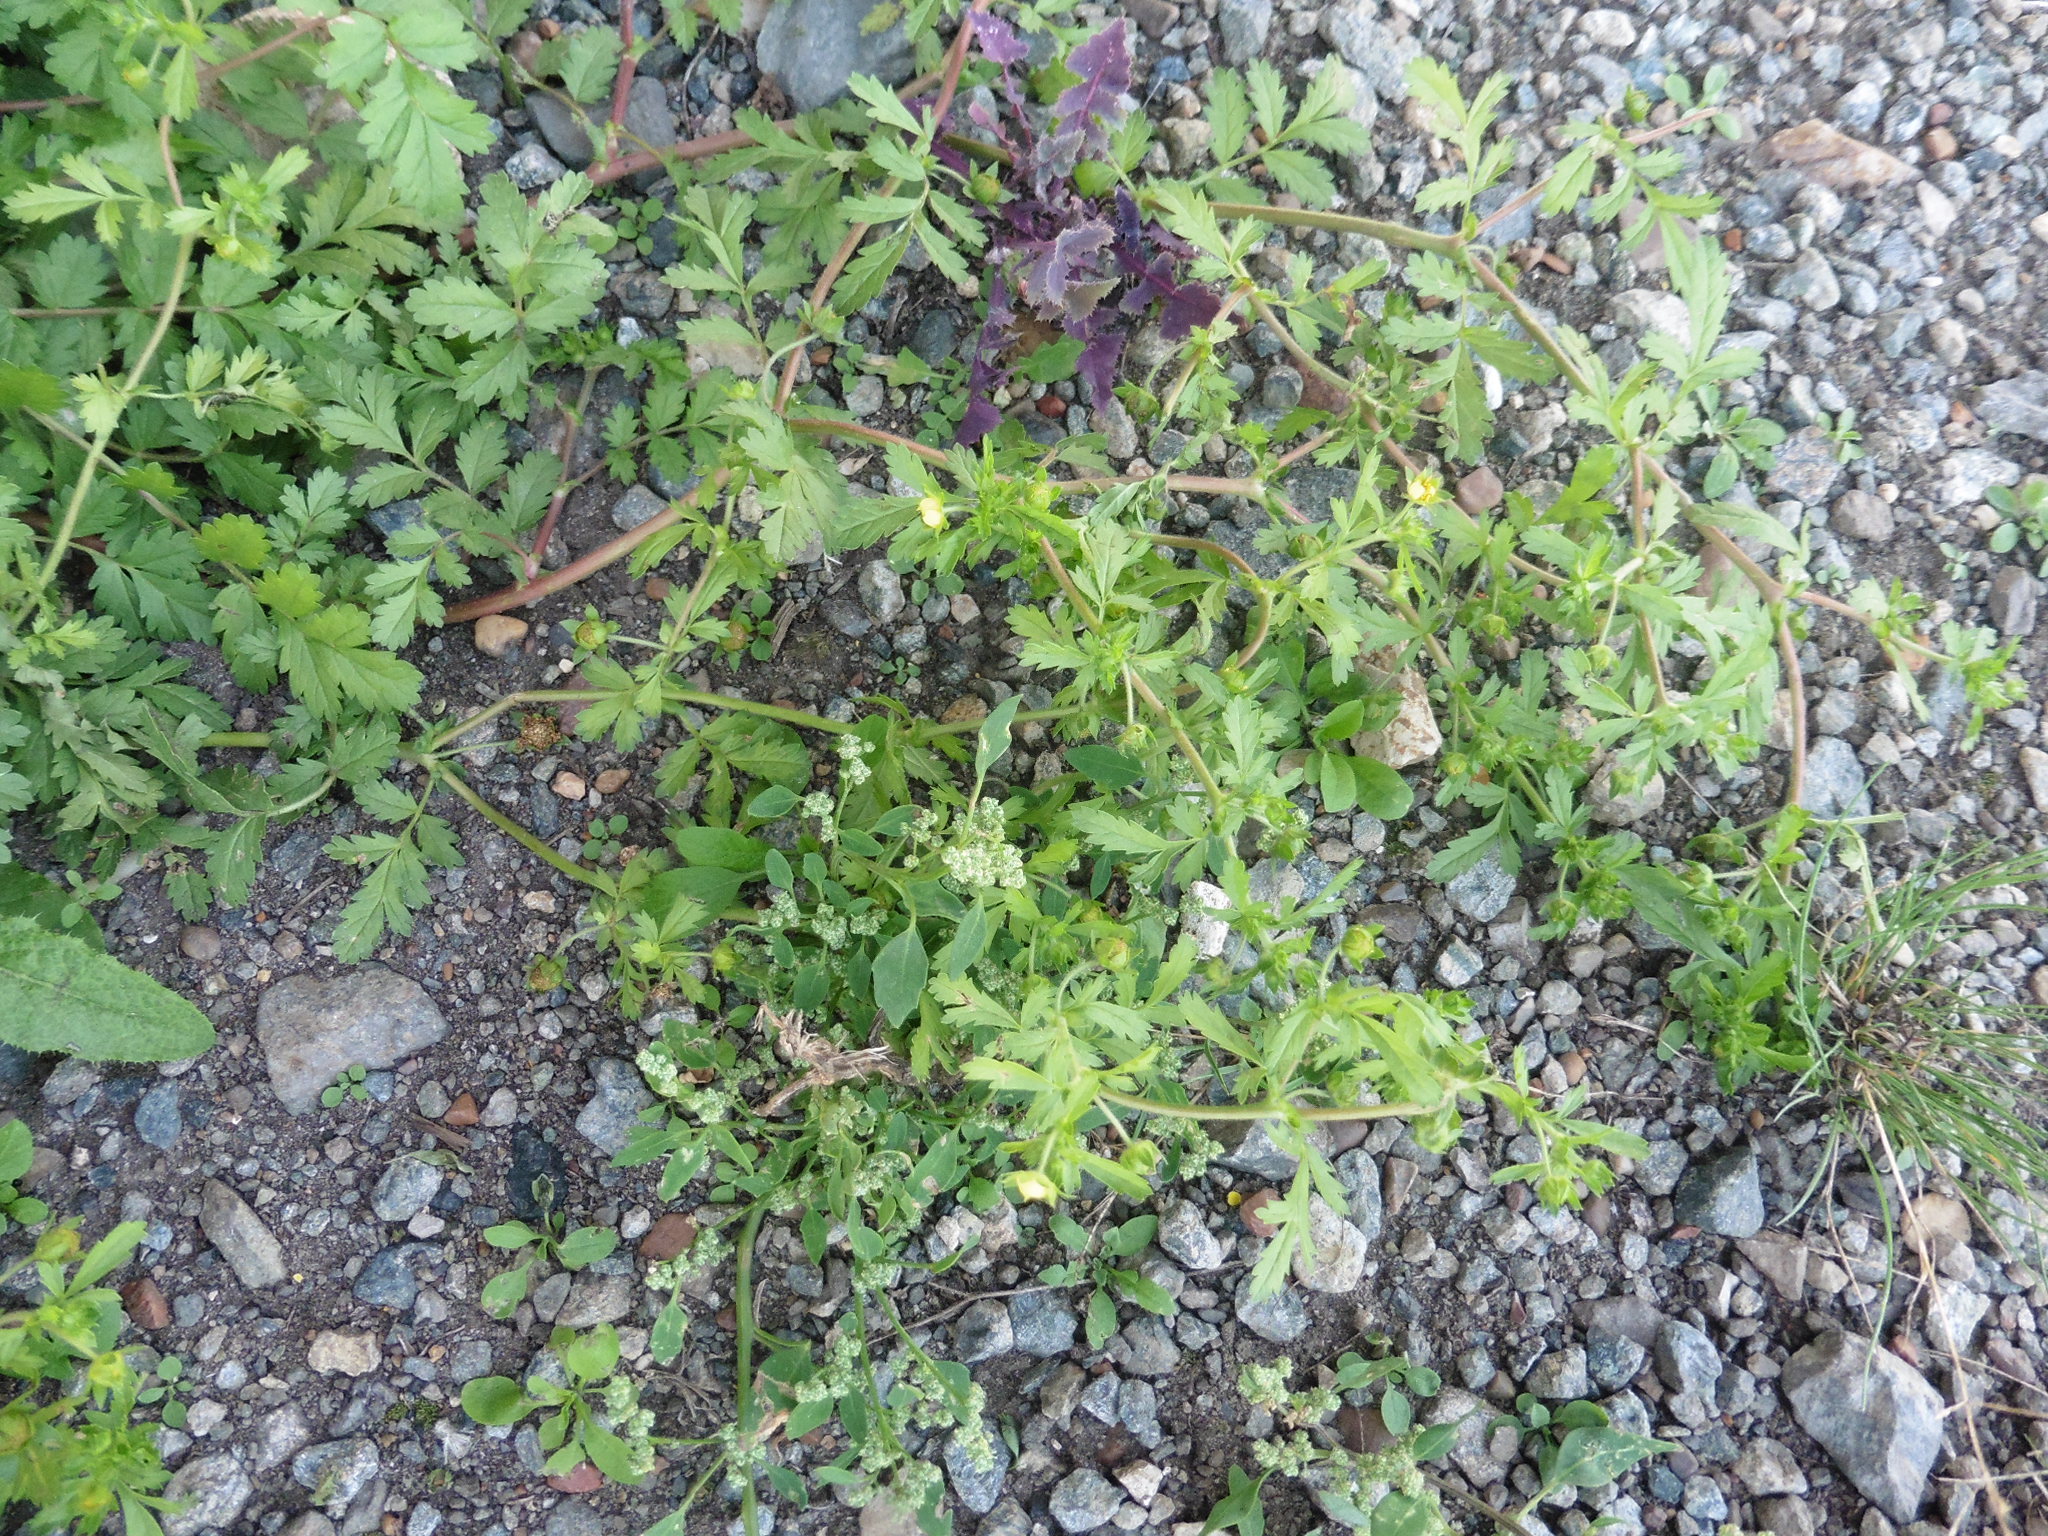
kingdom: Plantae
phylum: Tracheophyta
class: Magnoliopsida
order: Rosales
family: Rosaceae
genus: Potentilla
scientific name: Potentilla supina
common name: Prostrate cinquefoil
